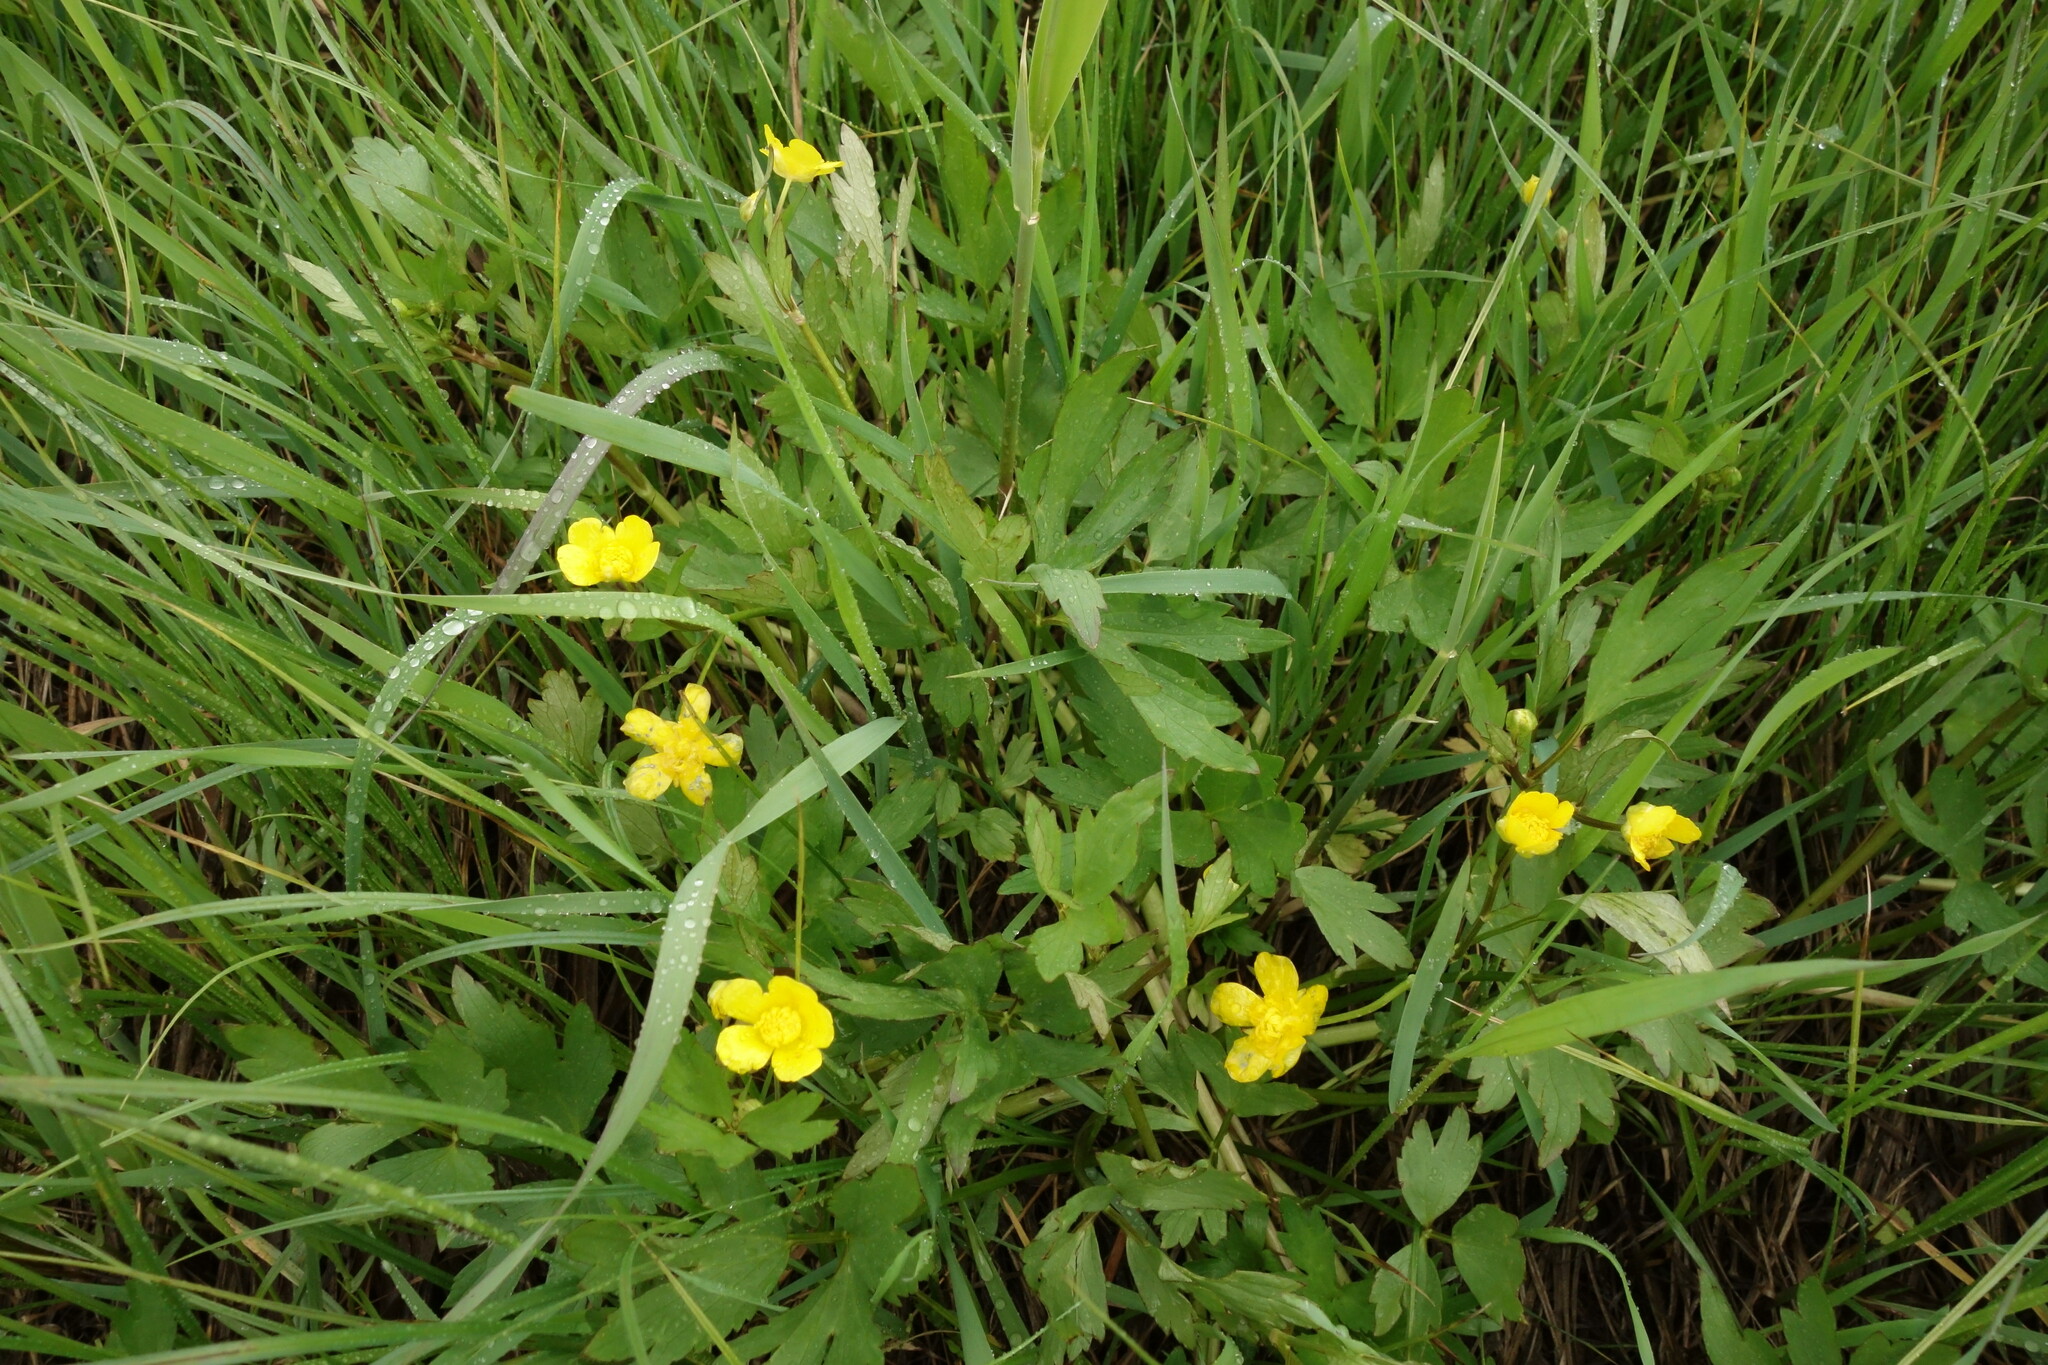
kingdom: Plantae
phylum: Tracheophyta
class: Magnoliopsida
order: Ranunculales
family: Ranunculaceae
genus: Ranunculus
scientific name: Ranunculus repens
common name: Creeping buttercup
